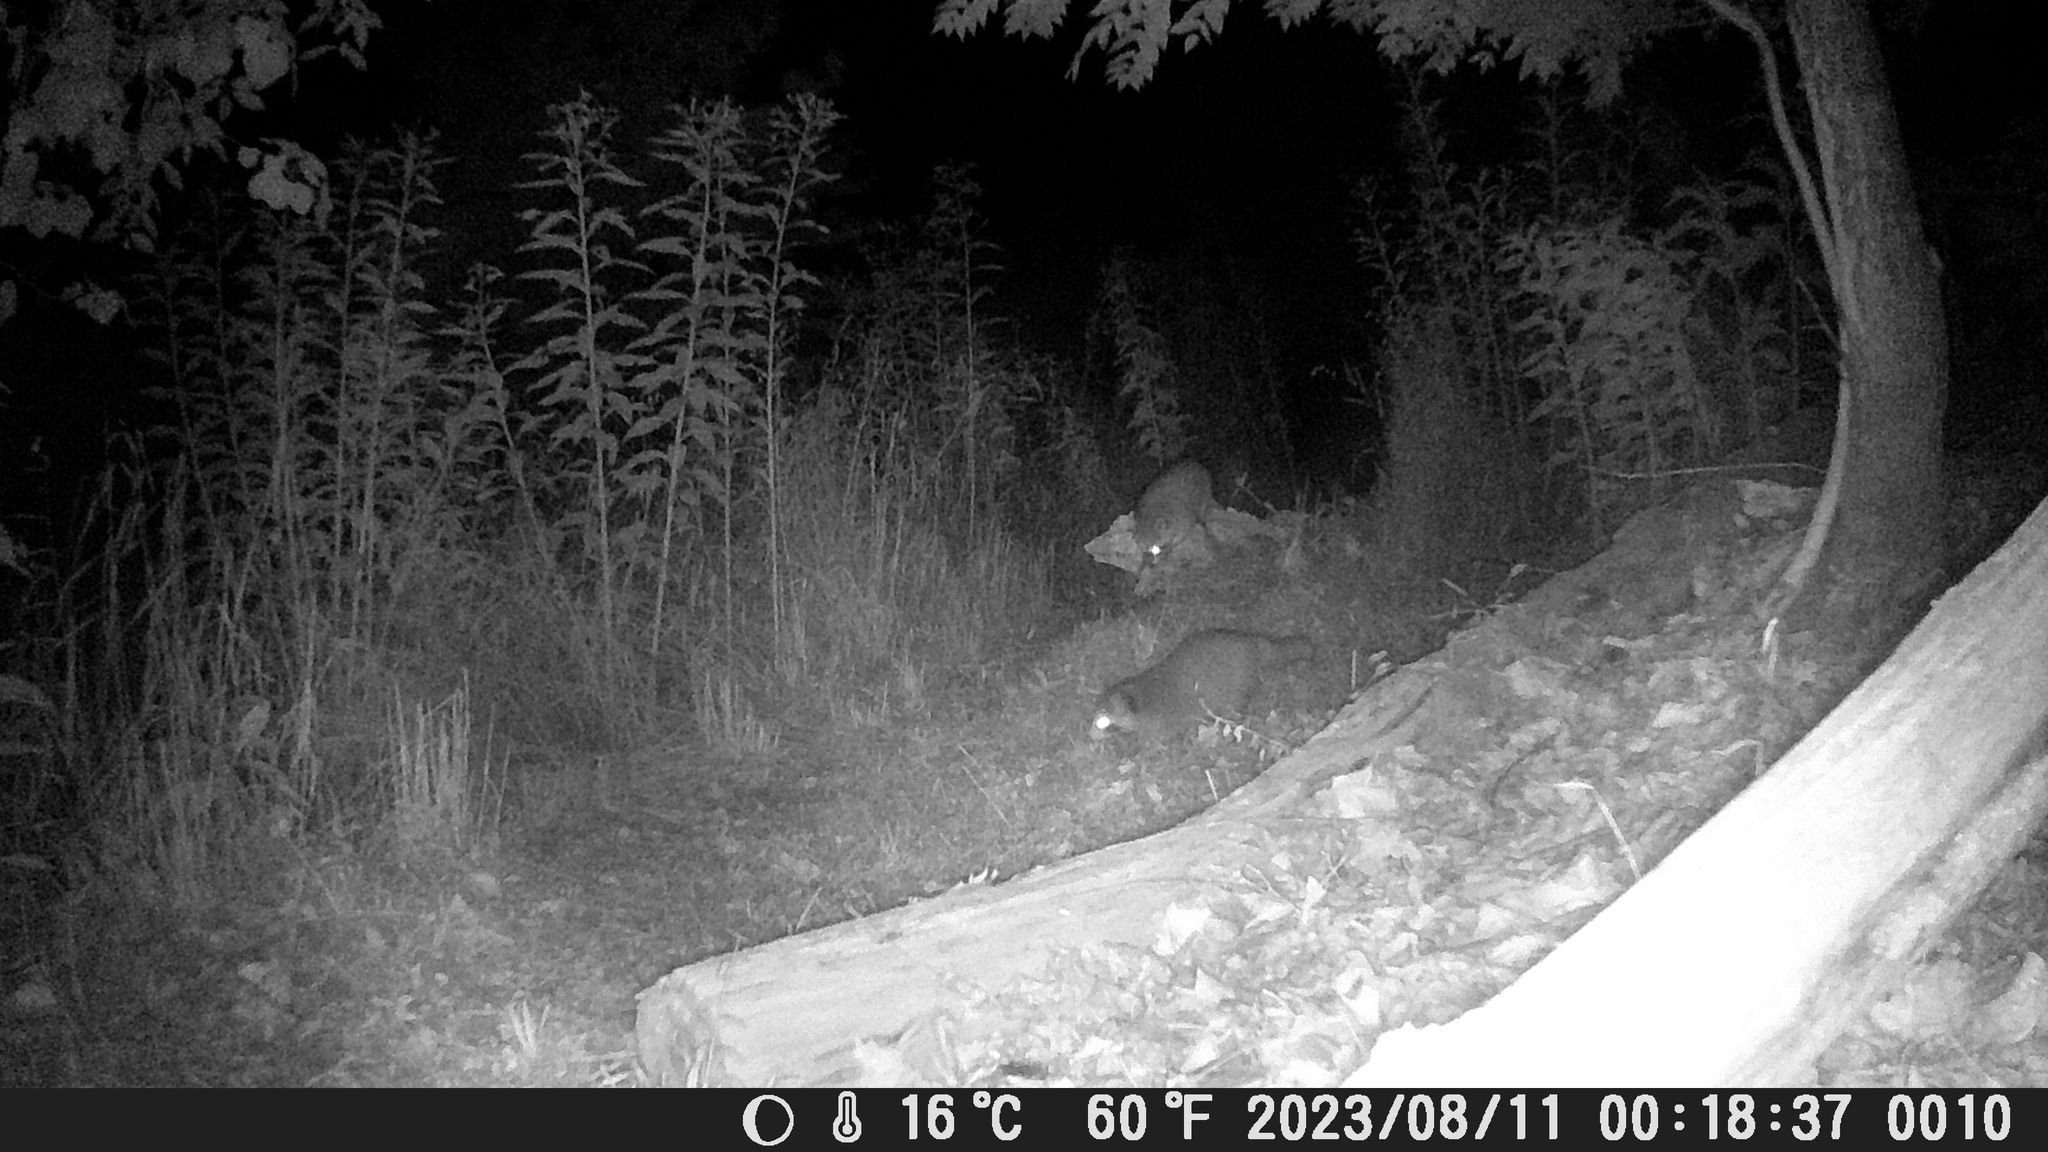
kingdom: Animalia
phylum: Chordata
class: Mammalia
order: Carnivora
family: Procyonidae
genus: Procyon
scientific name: Procyon lotor
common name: Raccoon
